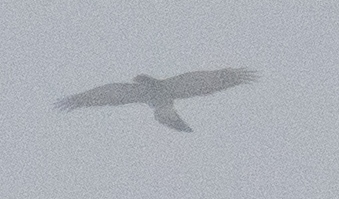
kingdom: Animalia
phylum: Chordata
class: Aves
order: Accipitriformes
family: Accipitridae
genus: Accipiter
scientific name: Accipiter nisus
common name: Eurasian sparrowhawk
